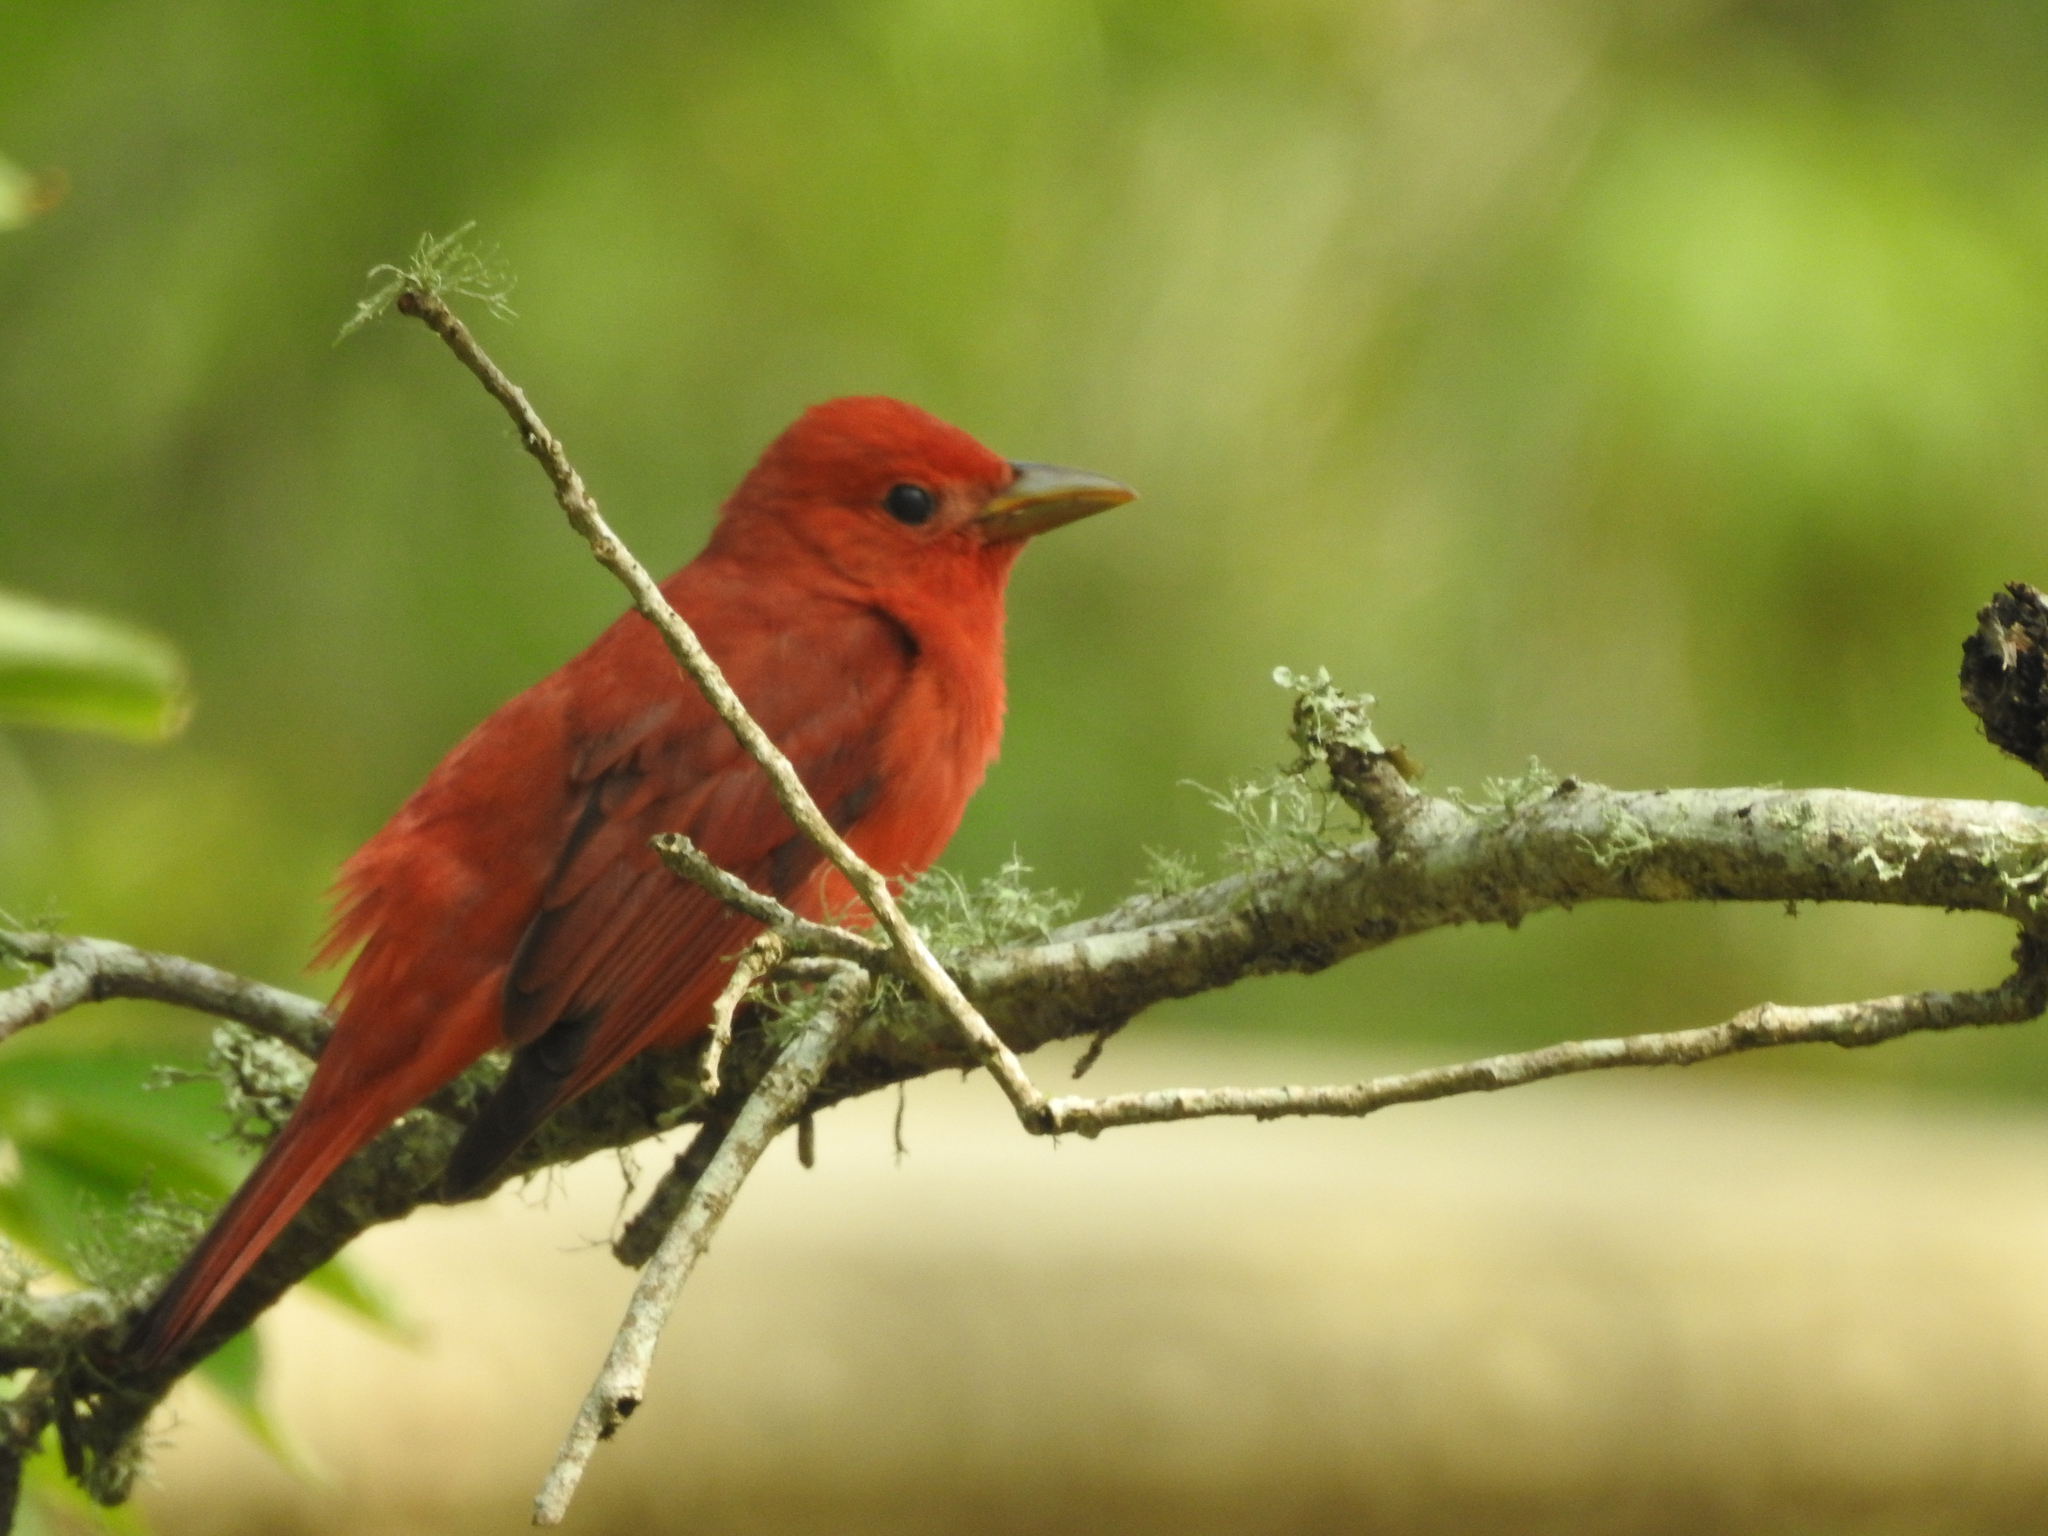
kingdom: Animalia
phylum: Chordata
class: Aves
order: Passeriformes
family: Cardinalidae
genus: Piranga
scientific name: Piranga rubra
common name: Summer tanager
